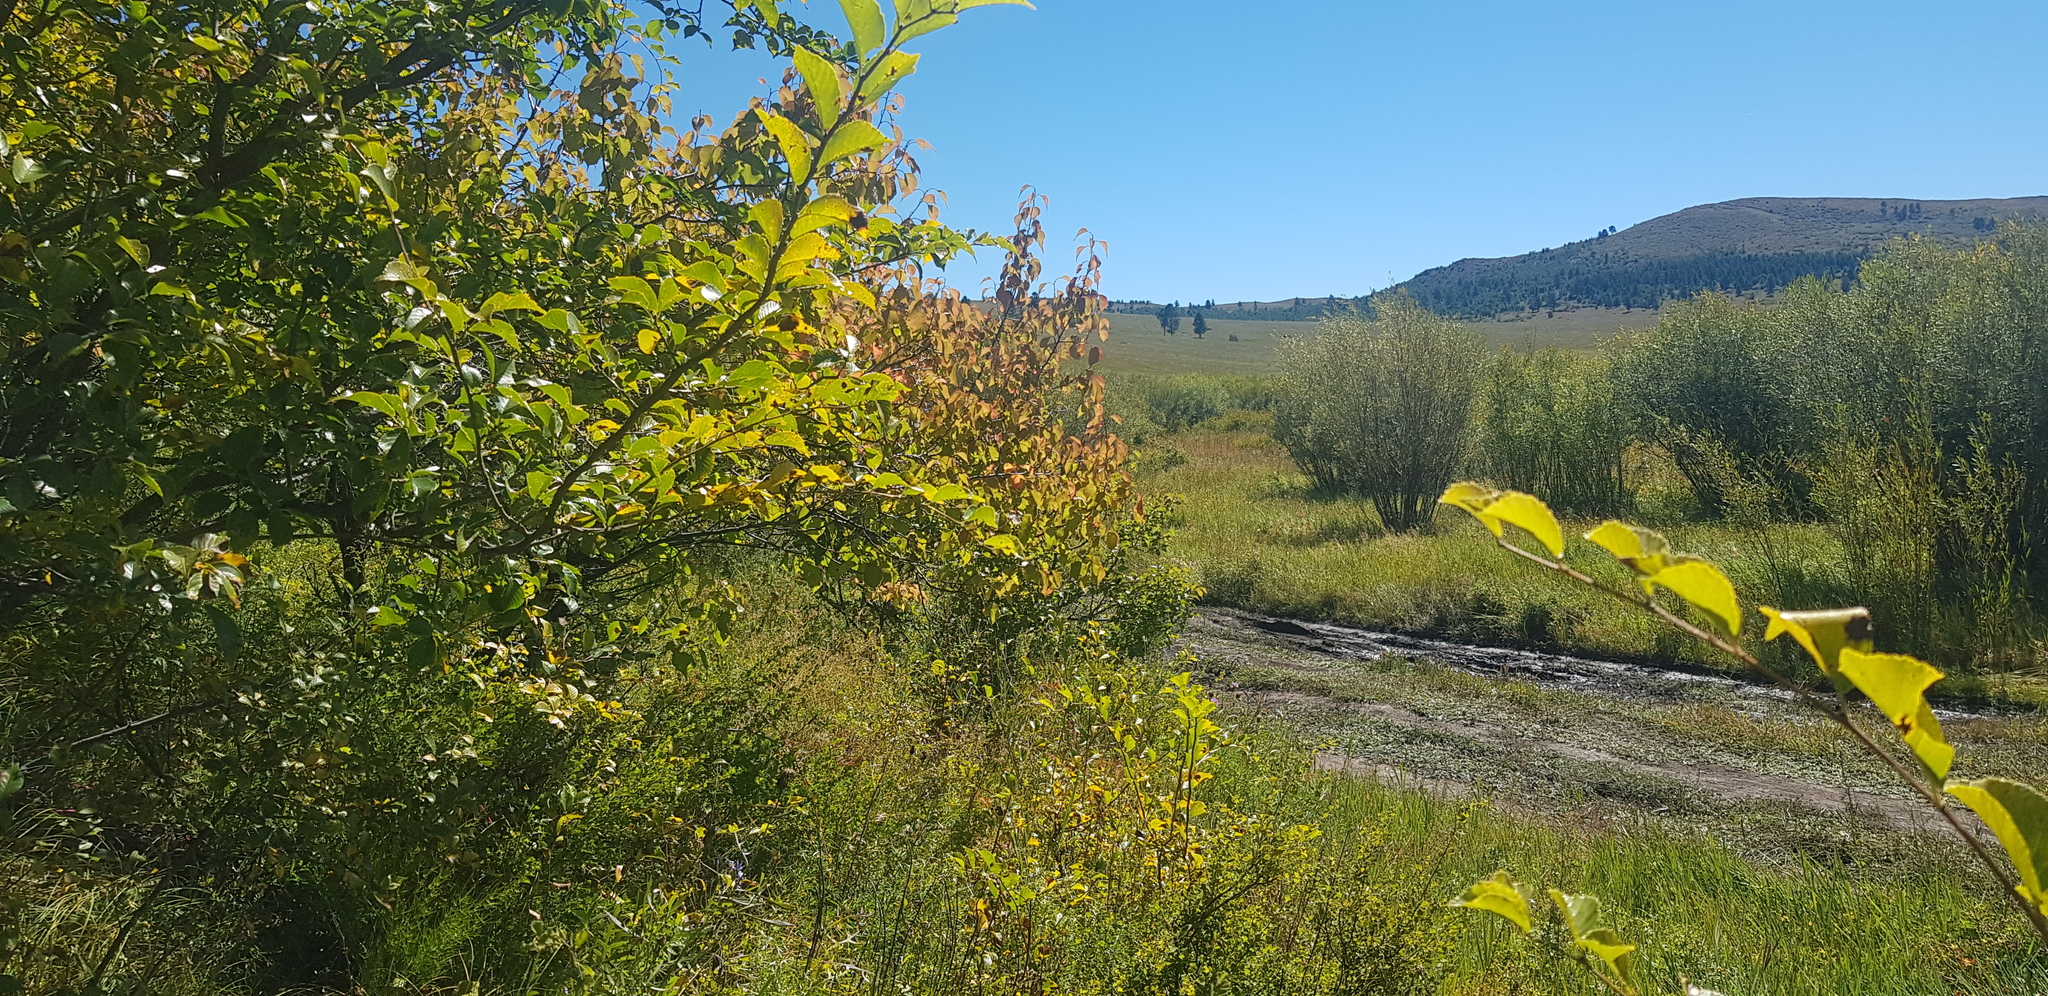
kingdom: Plantae
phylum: Tracheophyta
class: Magnoliopsida
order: Malpighiales
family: Salicaceae
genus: Populus
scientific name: Populus suaveolens
